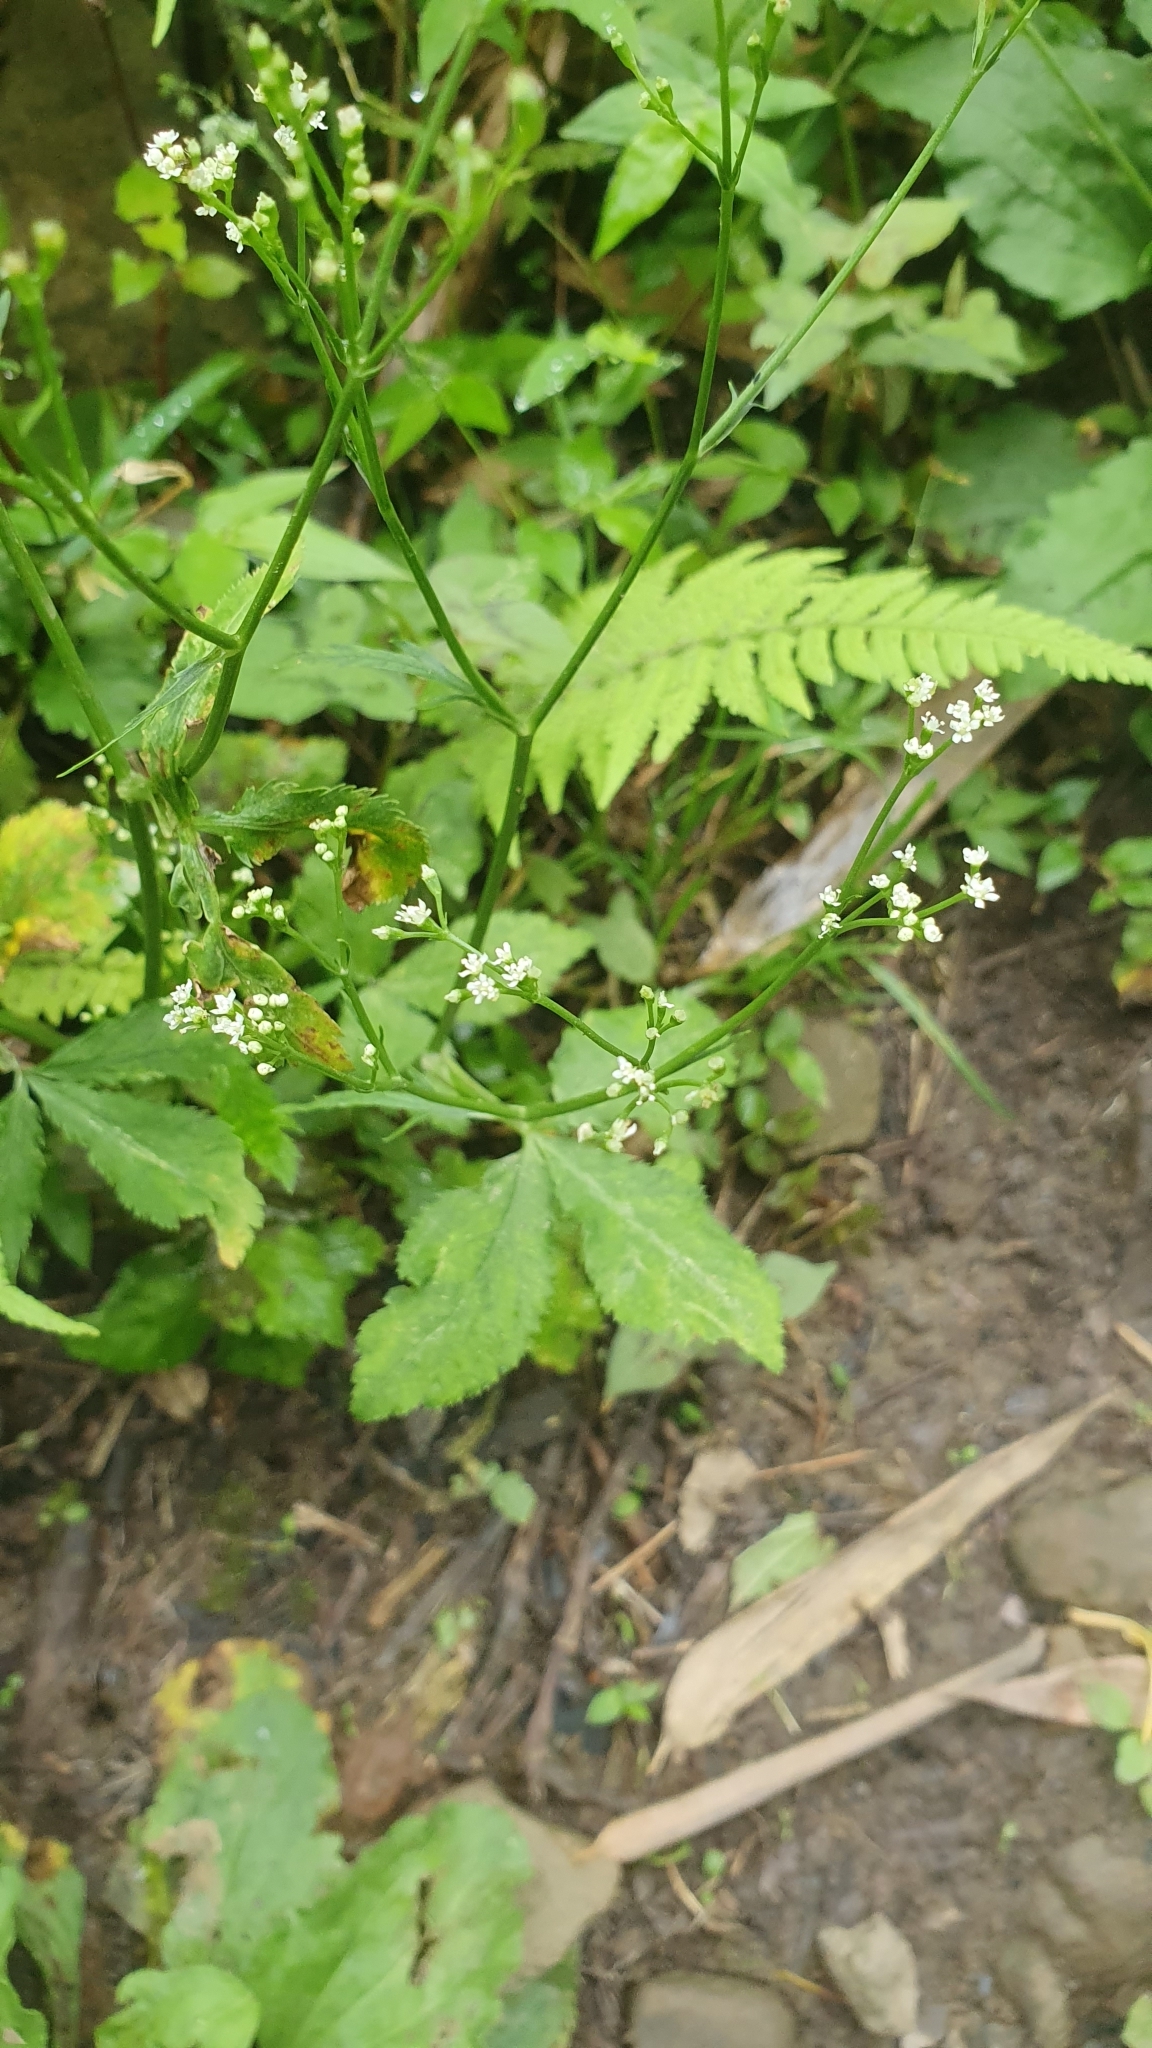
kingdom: Plantae
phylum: Tracheophyta
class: Magnoliopsida
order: Apiales
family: Apiaceae
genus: Cryptotaenia
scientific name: Cryptotaenia japonica
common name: Japanese cryptotaenia
